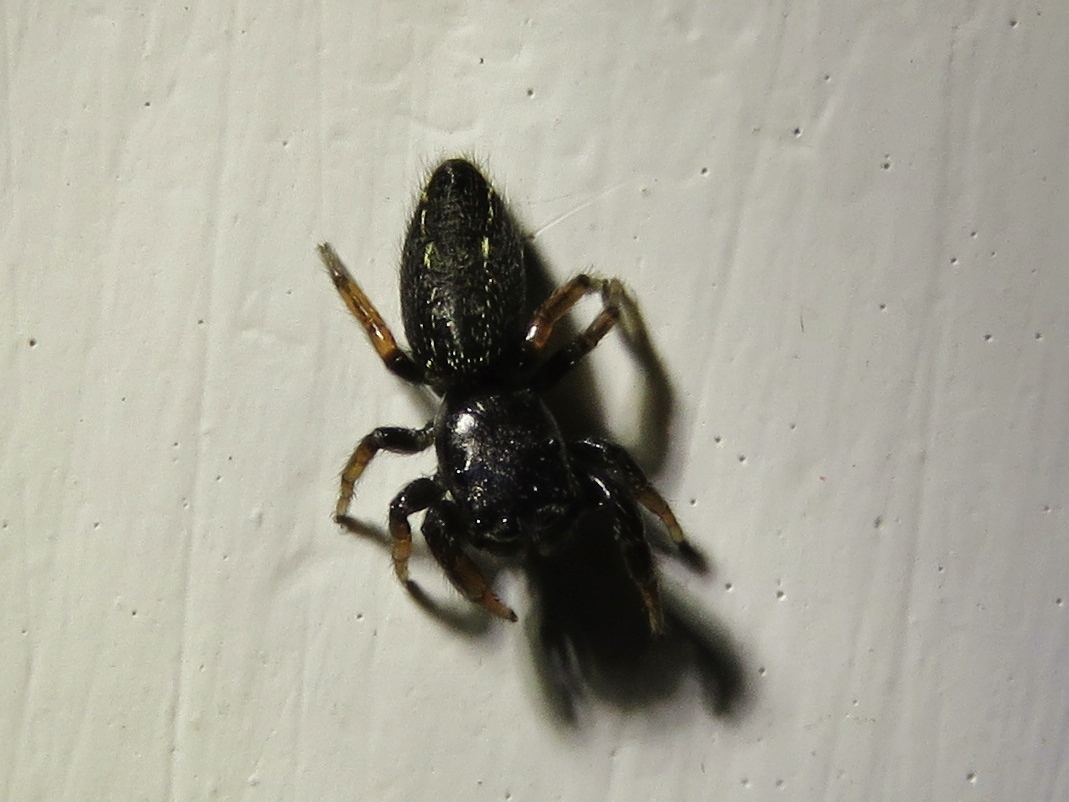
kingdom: Animalia
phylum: Arthropoda
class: Arachnida
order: Araneae
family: Salticidae
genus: Metacyrba
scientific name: Metacyrba taeniola
